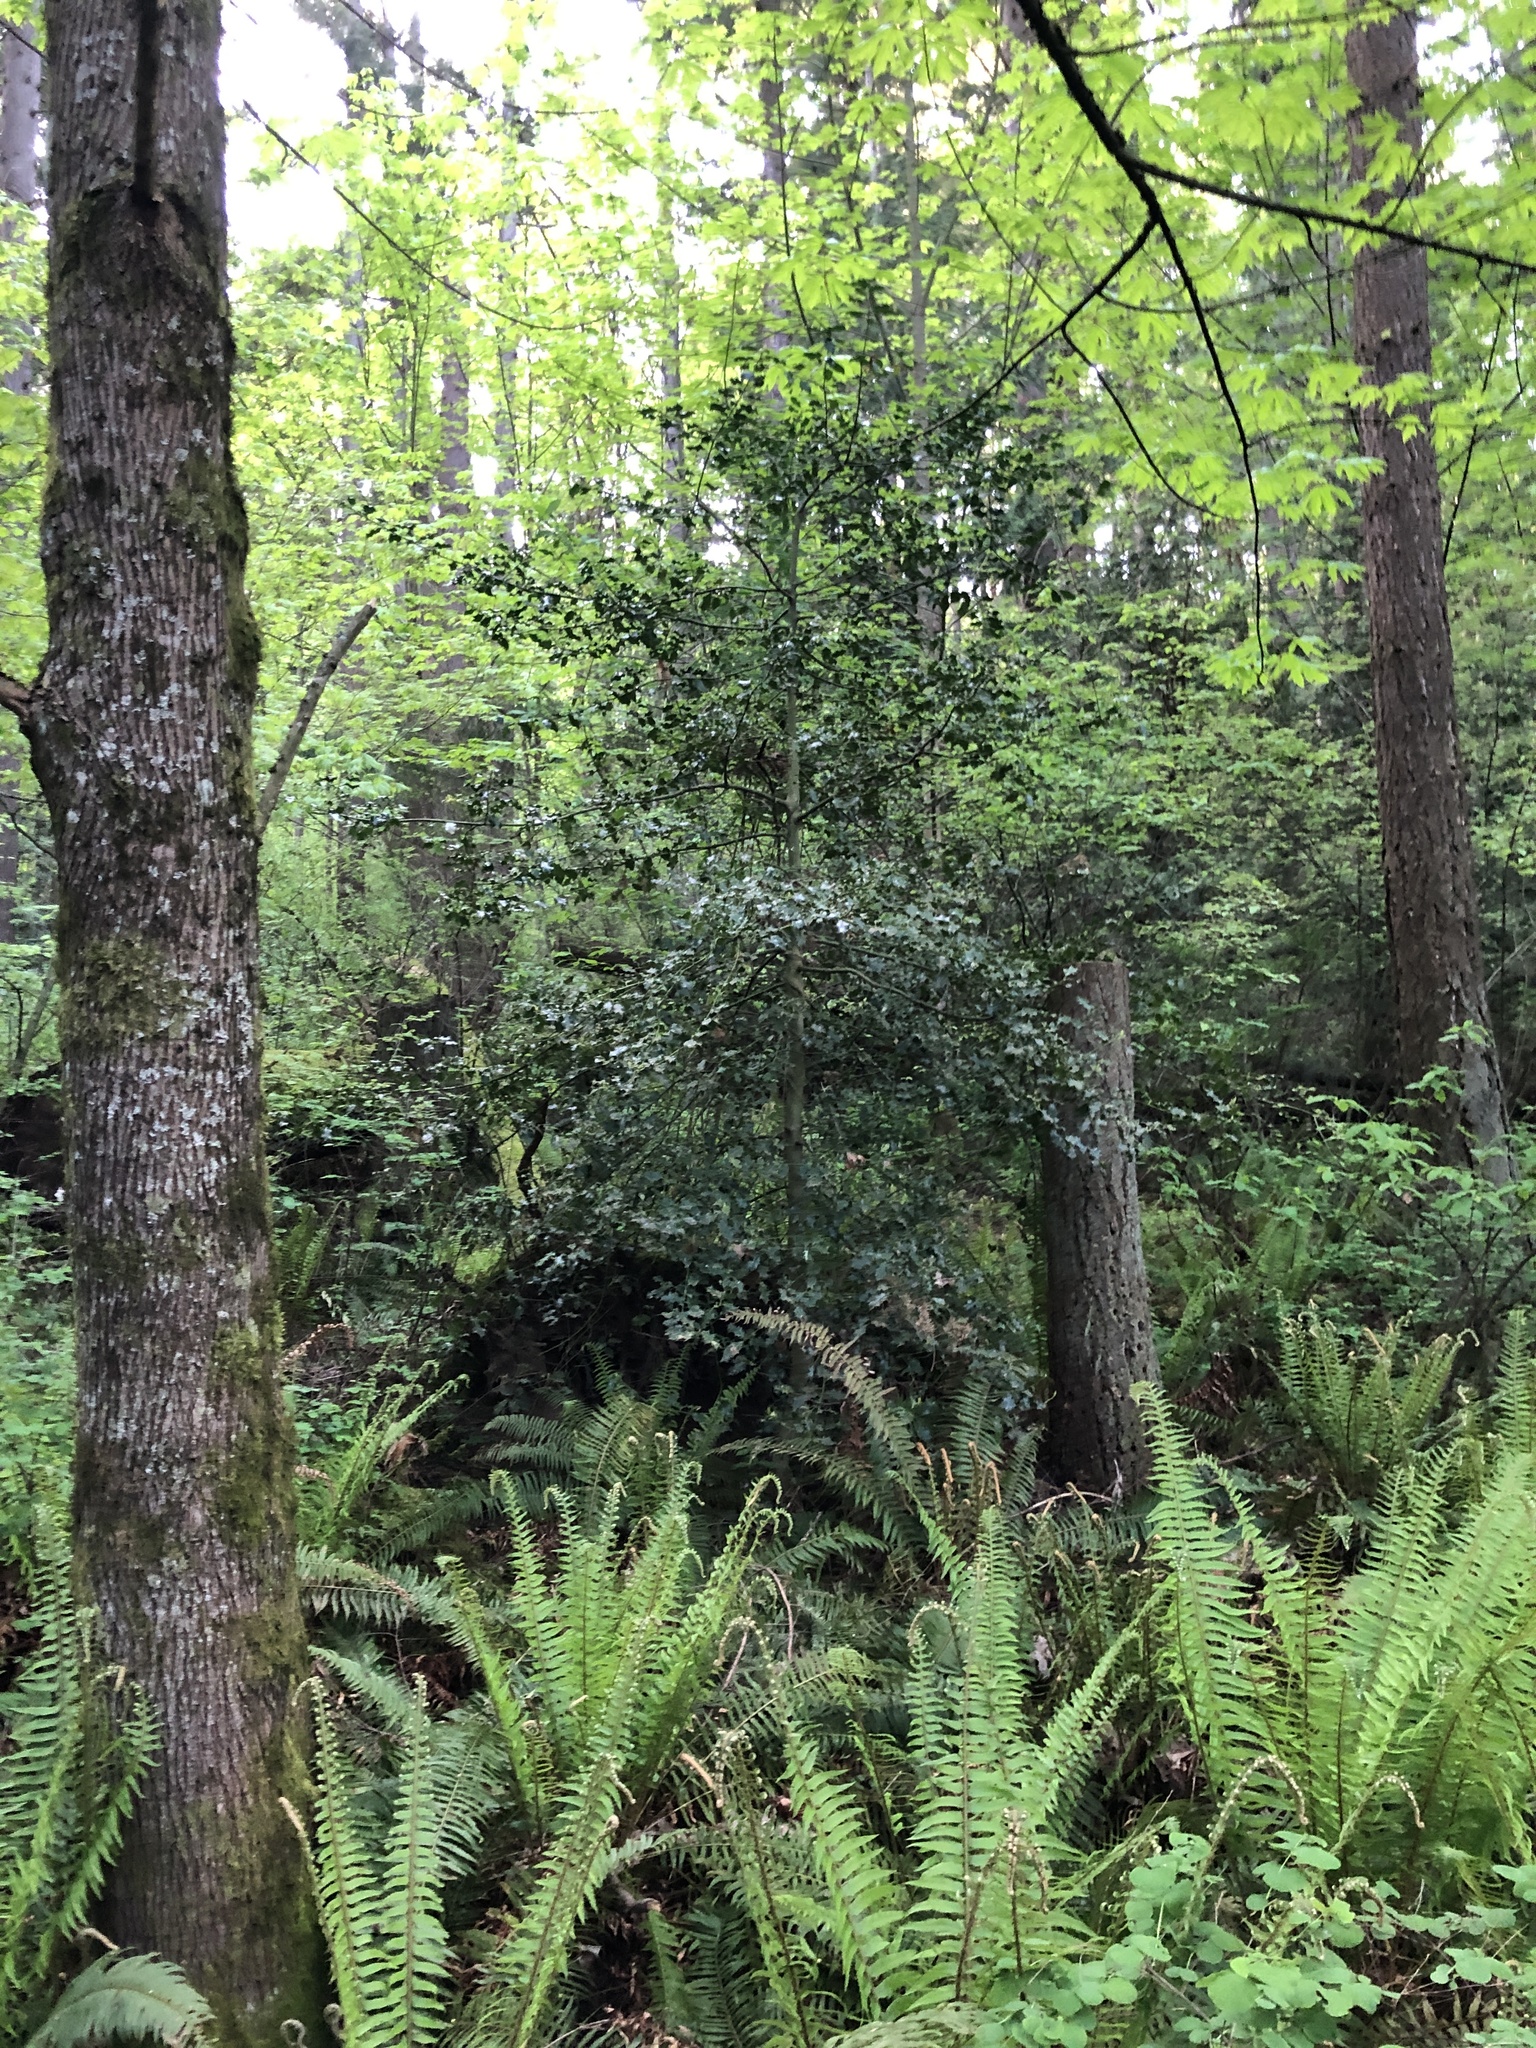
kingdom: Plantae
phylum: Tracheophyta
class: Magnoliopsida
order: Aquifoliales
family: Aquifoliaceae
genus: Ilex
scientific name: Ilex aquifolium
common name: English holly
